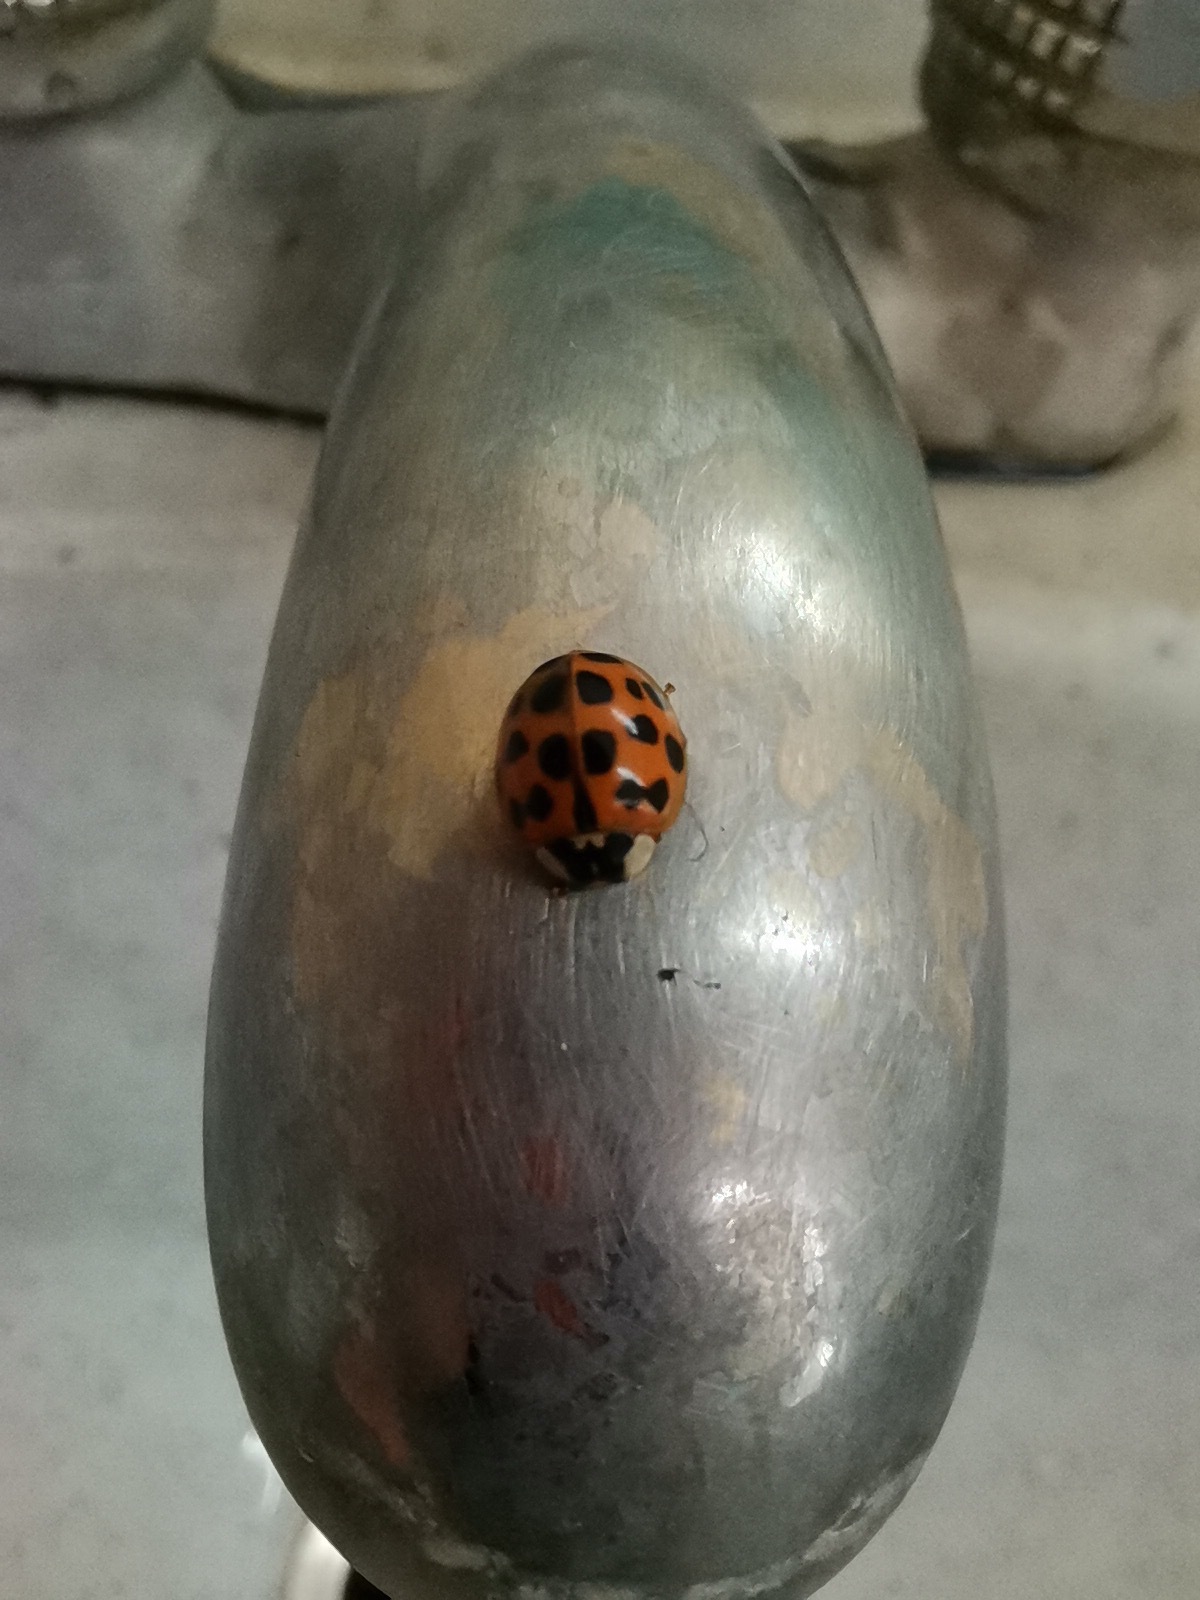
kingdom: Animalia
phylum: Arthropoda
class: Insecta
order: Coleoptera
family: Coccinellidae
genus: Harmonia
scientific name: Harmonia axyridis
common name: Harlequin ladybird
